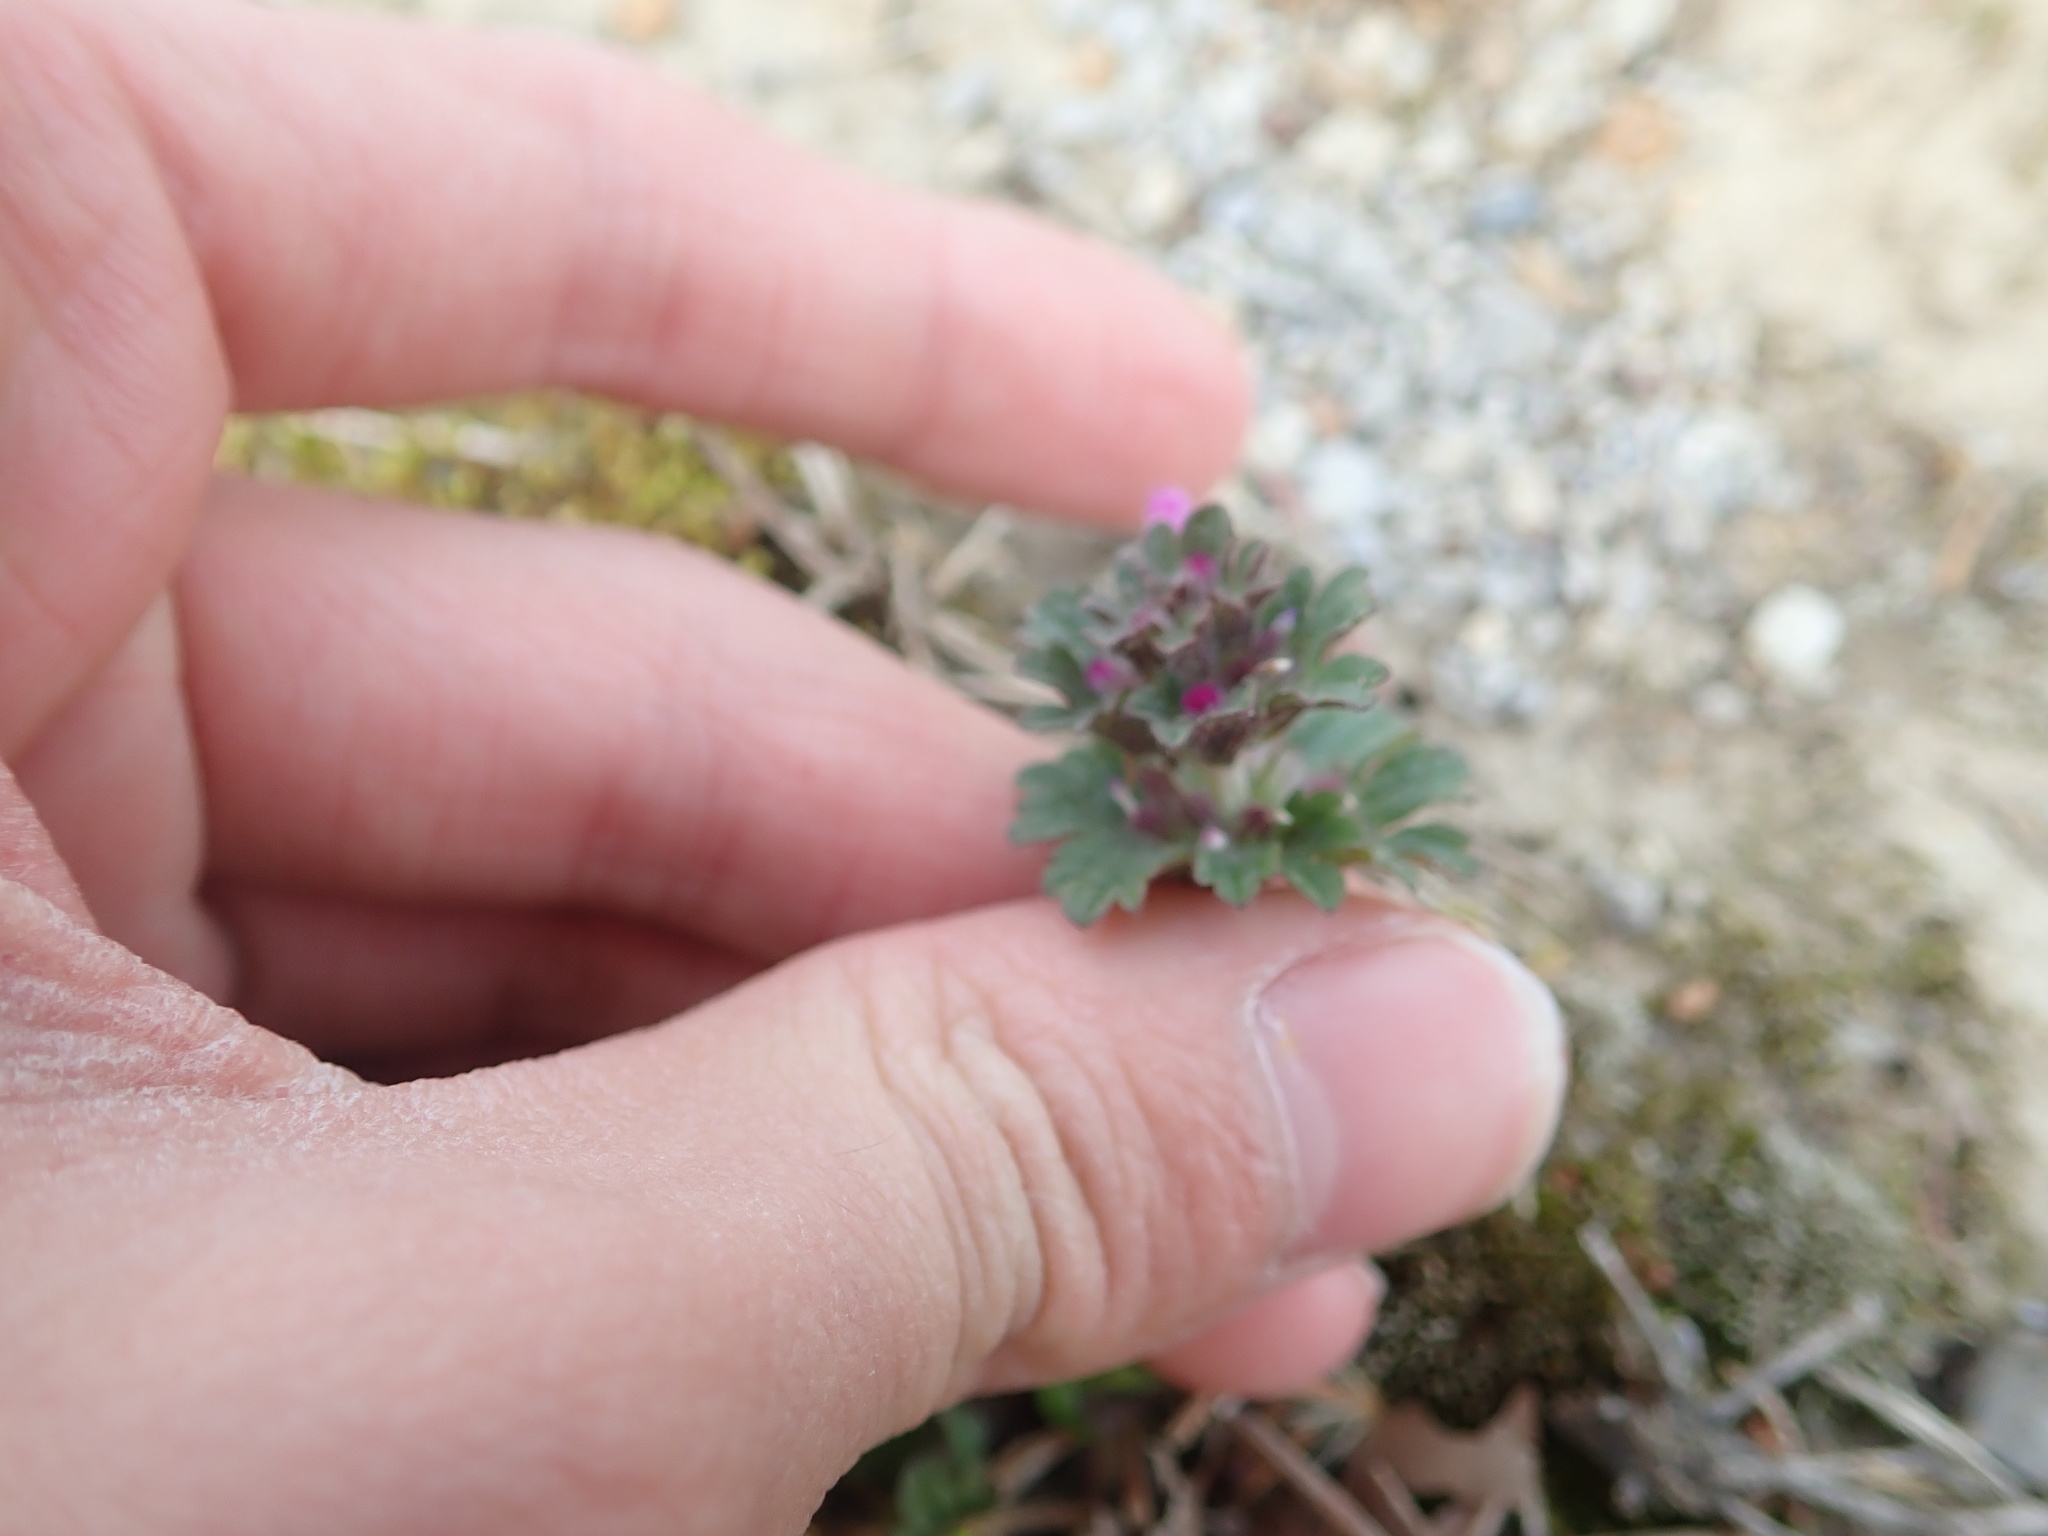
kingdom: Plantae
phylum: Tracheophyta
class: Magnoliopsida
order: Lamiales
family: Lamiaceae
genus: Lamium
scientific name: Lamium amplexicaule
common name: Henbit dead-nettle
